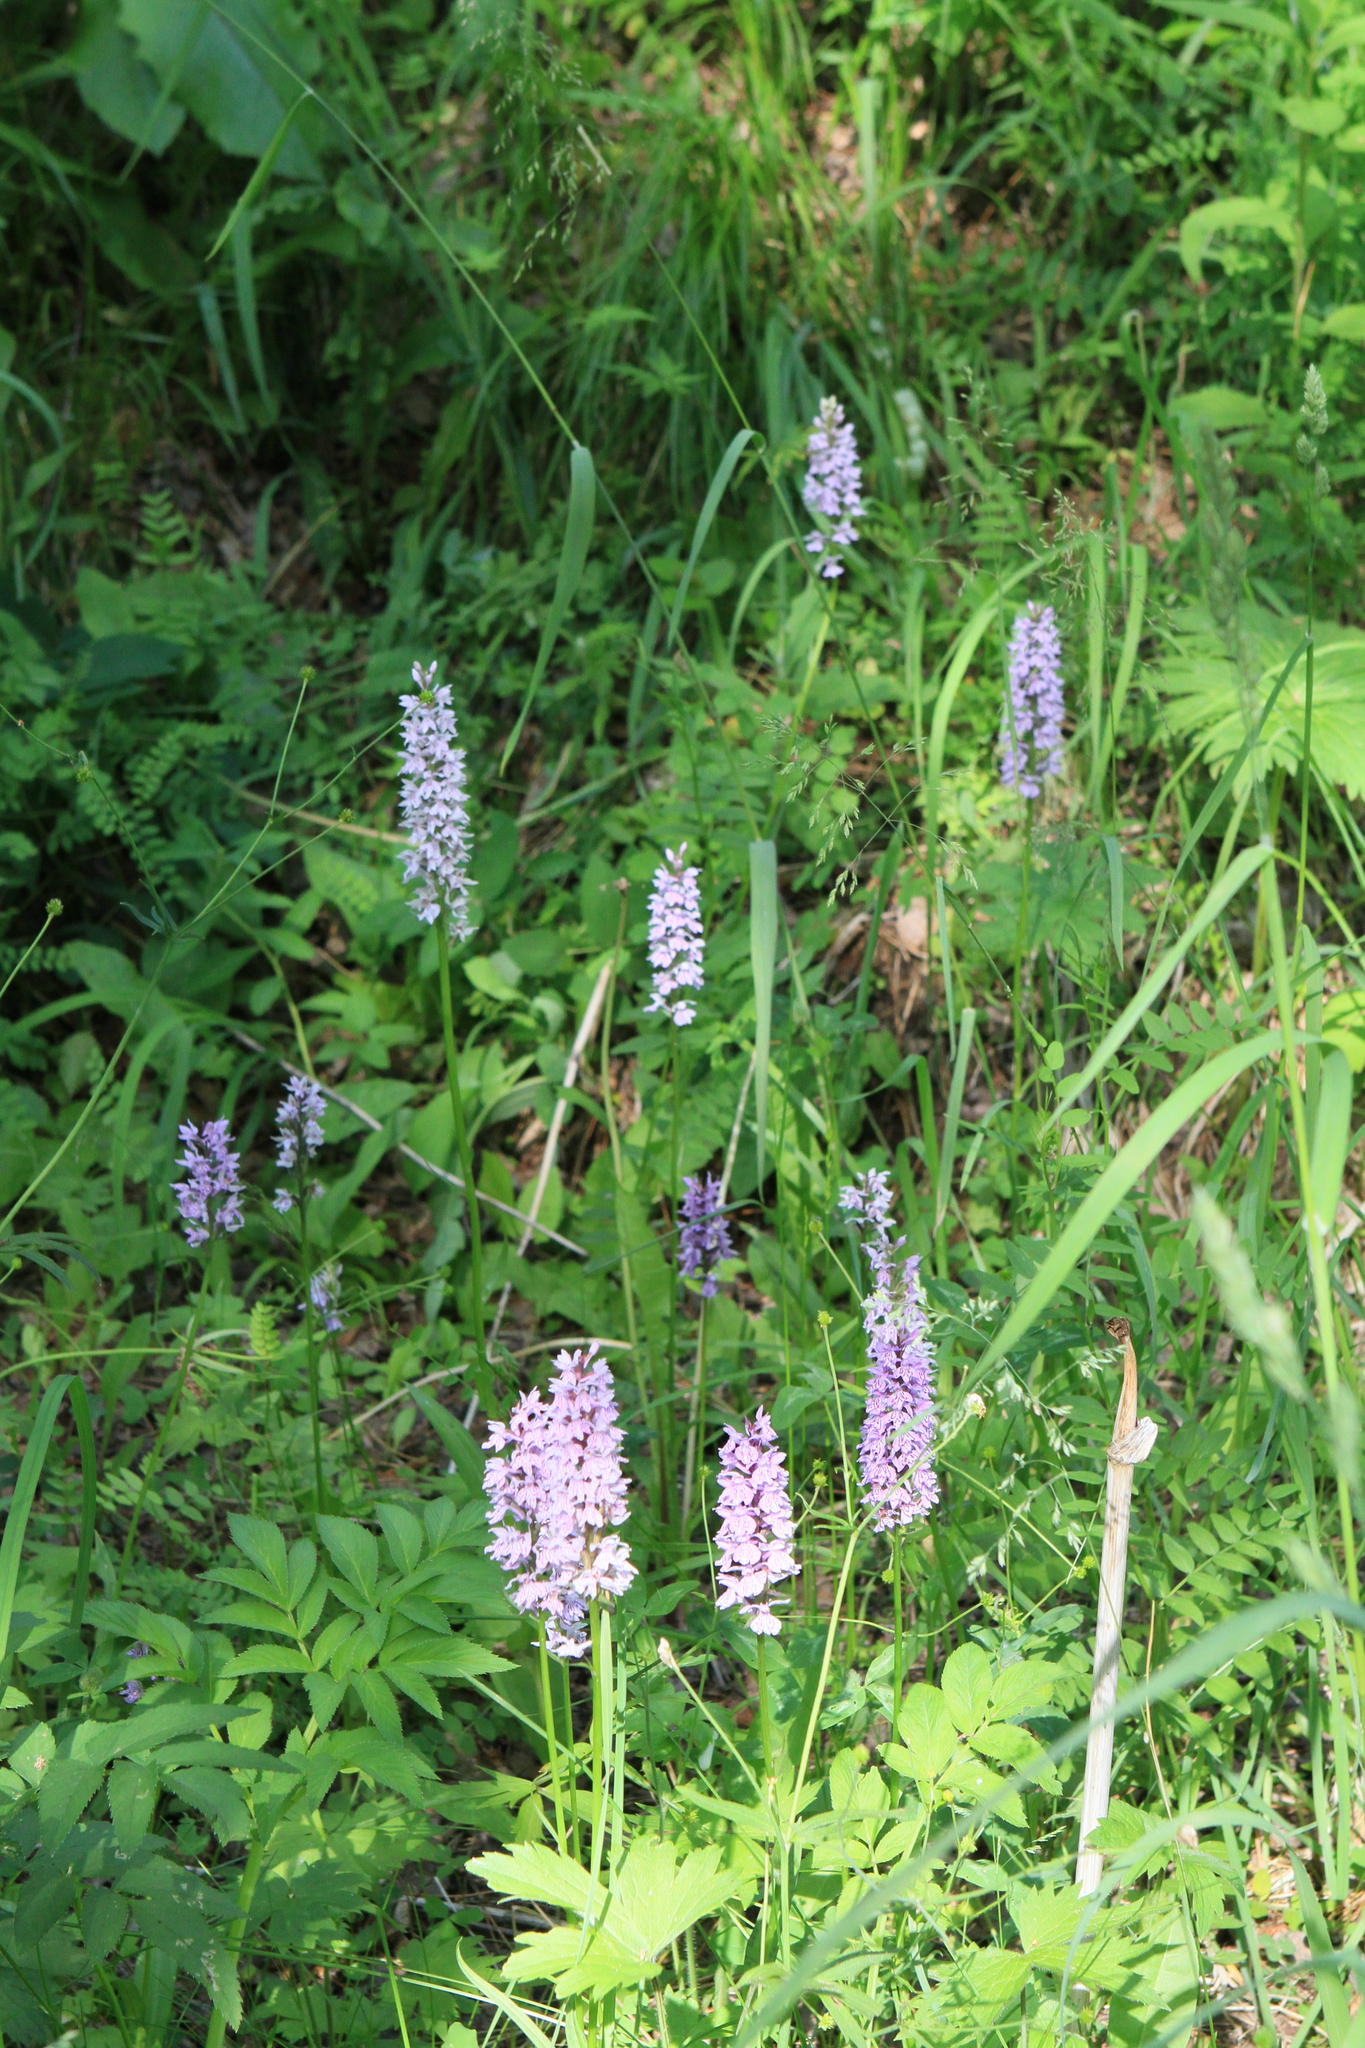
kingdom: Plantae
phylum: Tracheophyta
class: Liliopsida
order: Asparagales
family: Orchidaceae
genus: Dactylorhiza
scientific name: Dactylorhiza maculata
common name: Heath spotted-orchid
